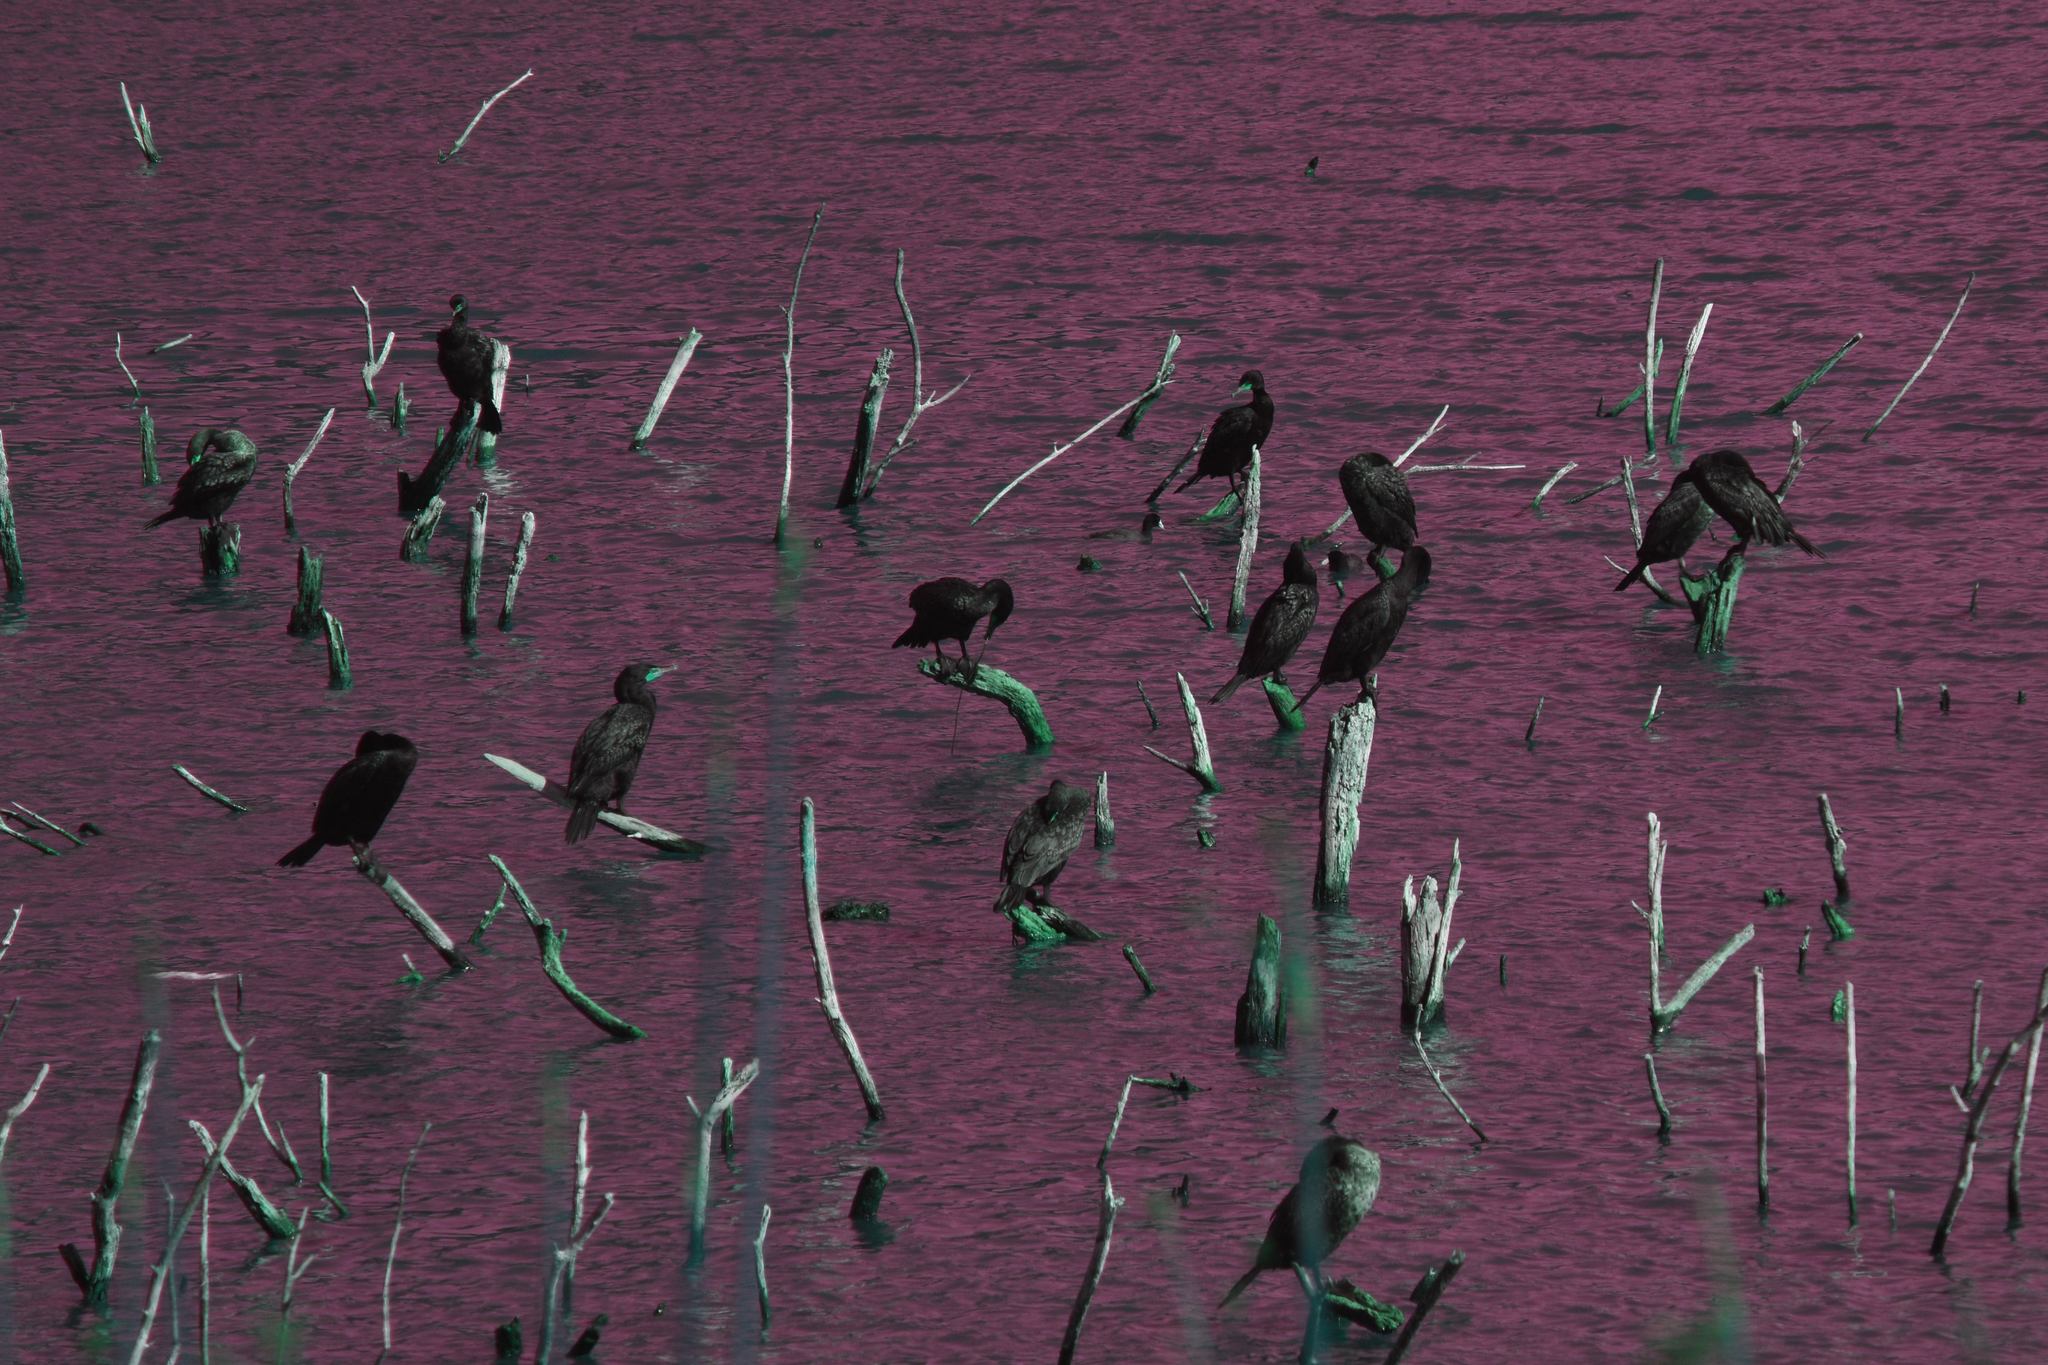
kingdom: Animalia
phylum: Chordata
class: Aves
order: Suliformes
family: Phalacrocoracidae
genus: Phalacrocorax
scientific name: Phalacrocorax auritus
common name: Double-crested cormorant
